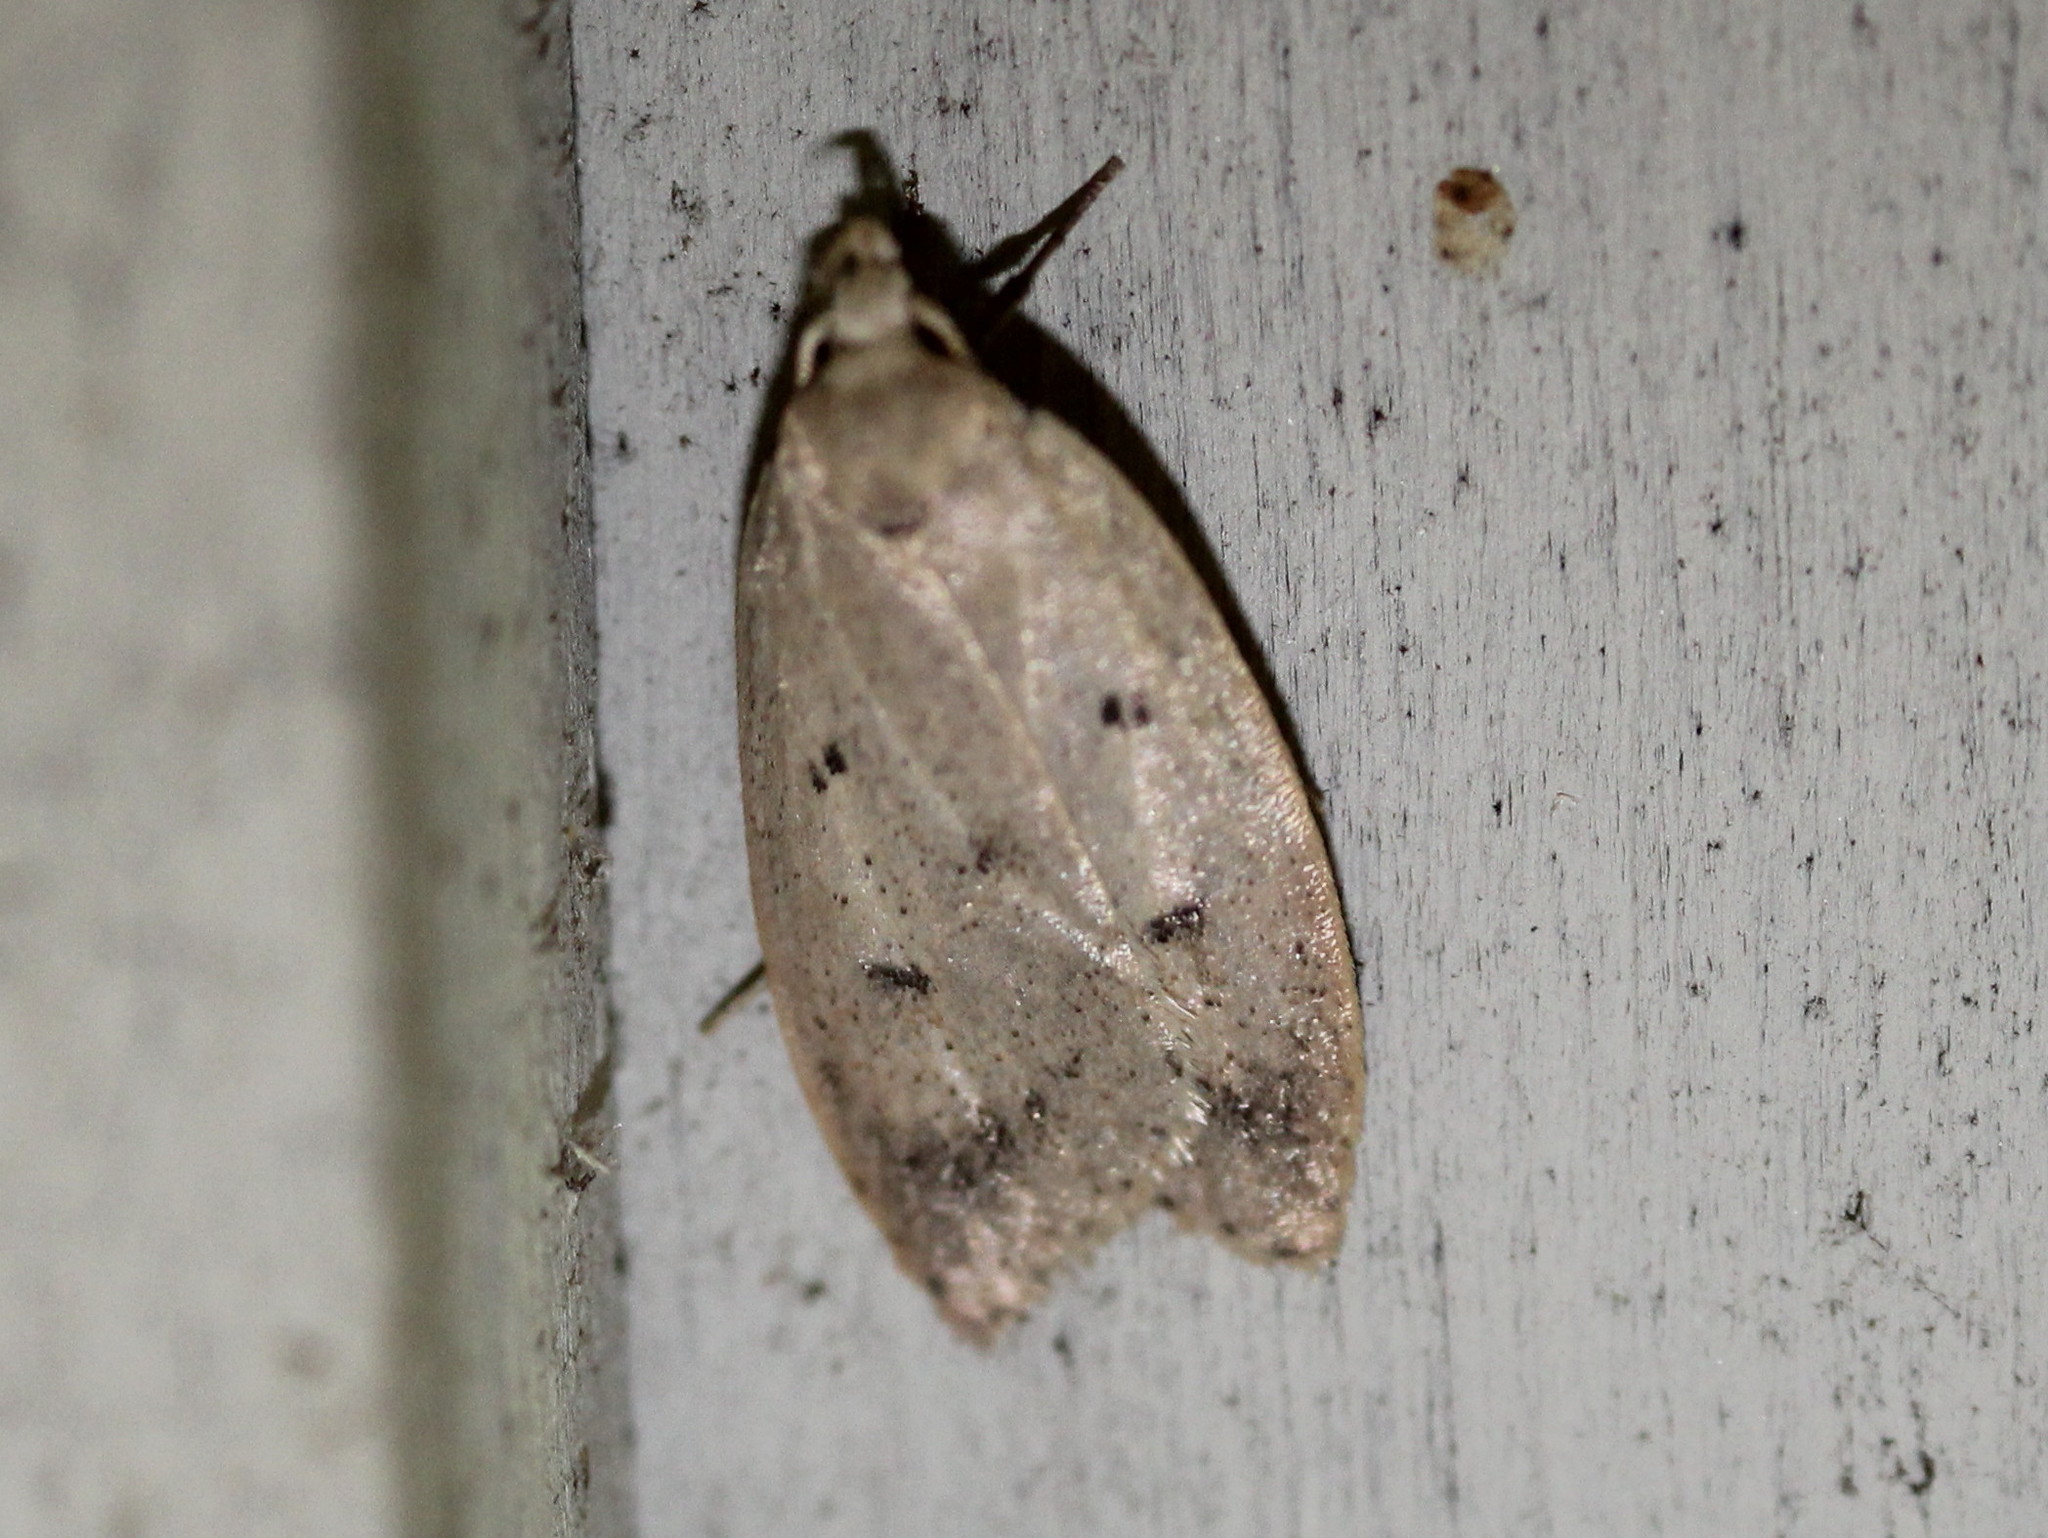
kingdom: Animalia
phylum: Arthropoda
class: Insecta
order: Lepidoptera
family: Peleopodidae
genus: Machimia
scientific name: Machimia tentoriferella
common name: Gold-striped leaftier moth
